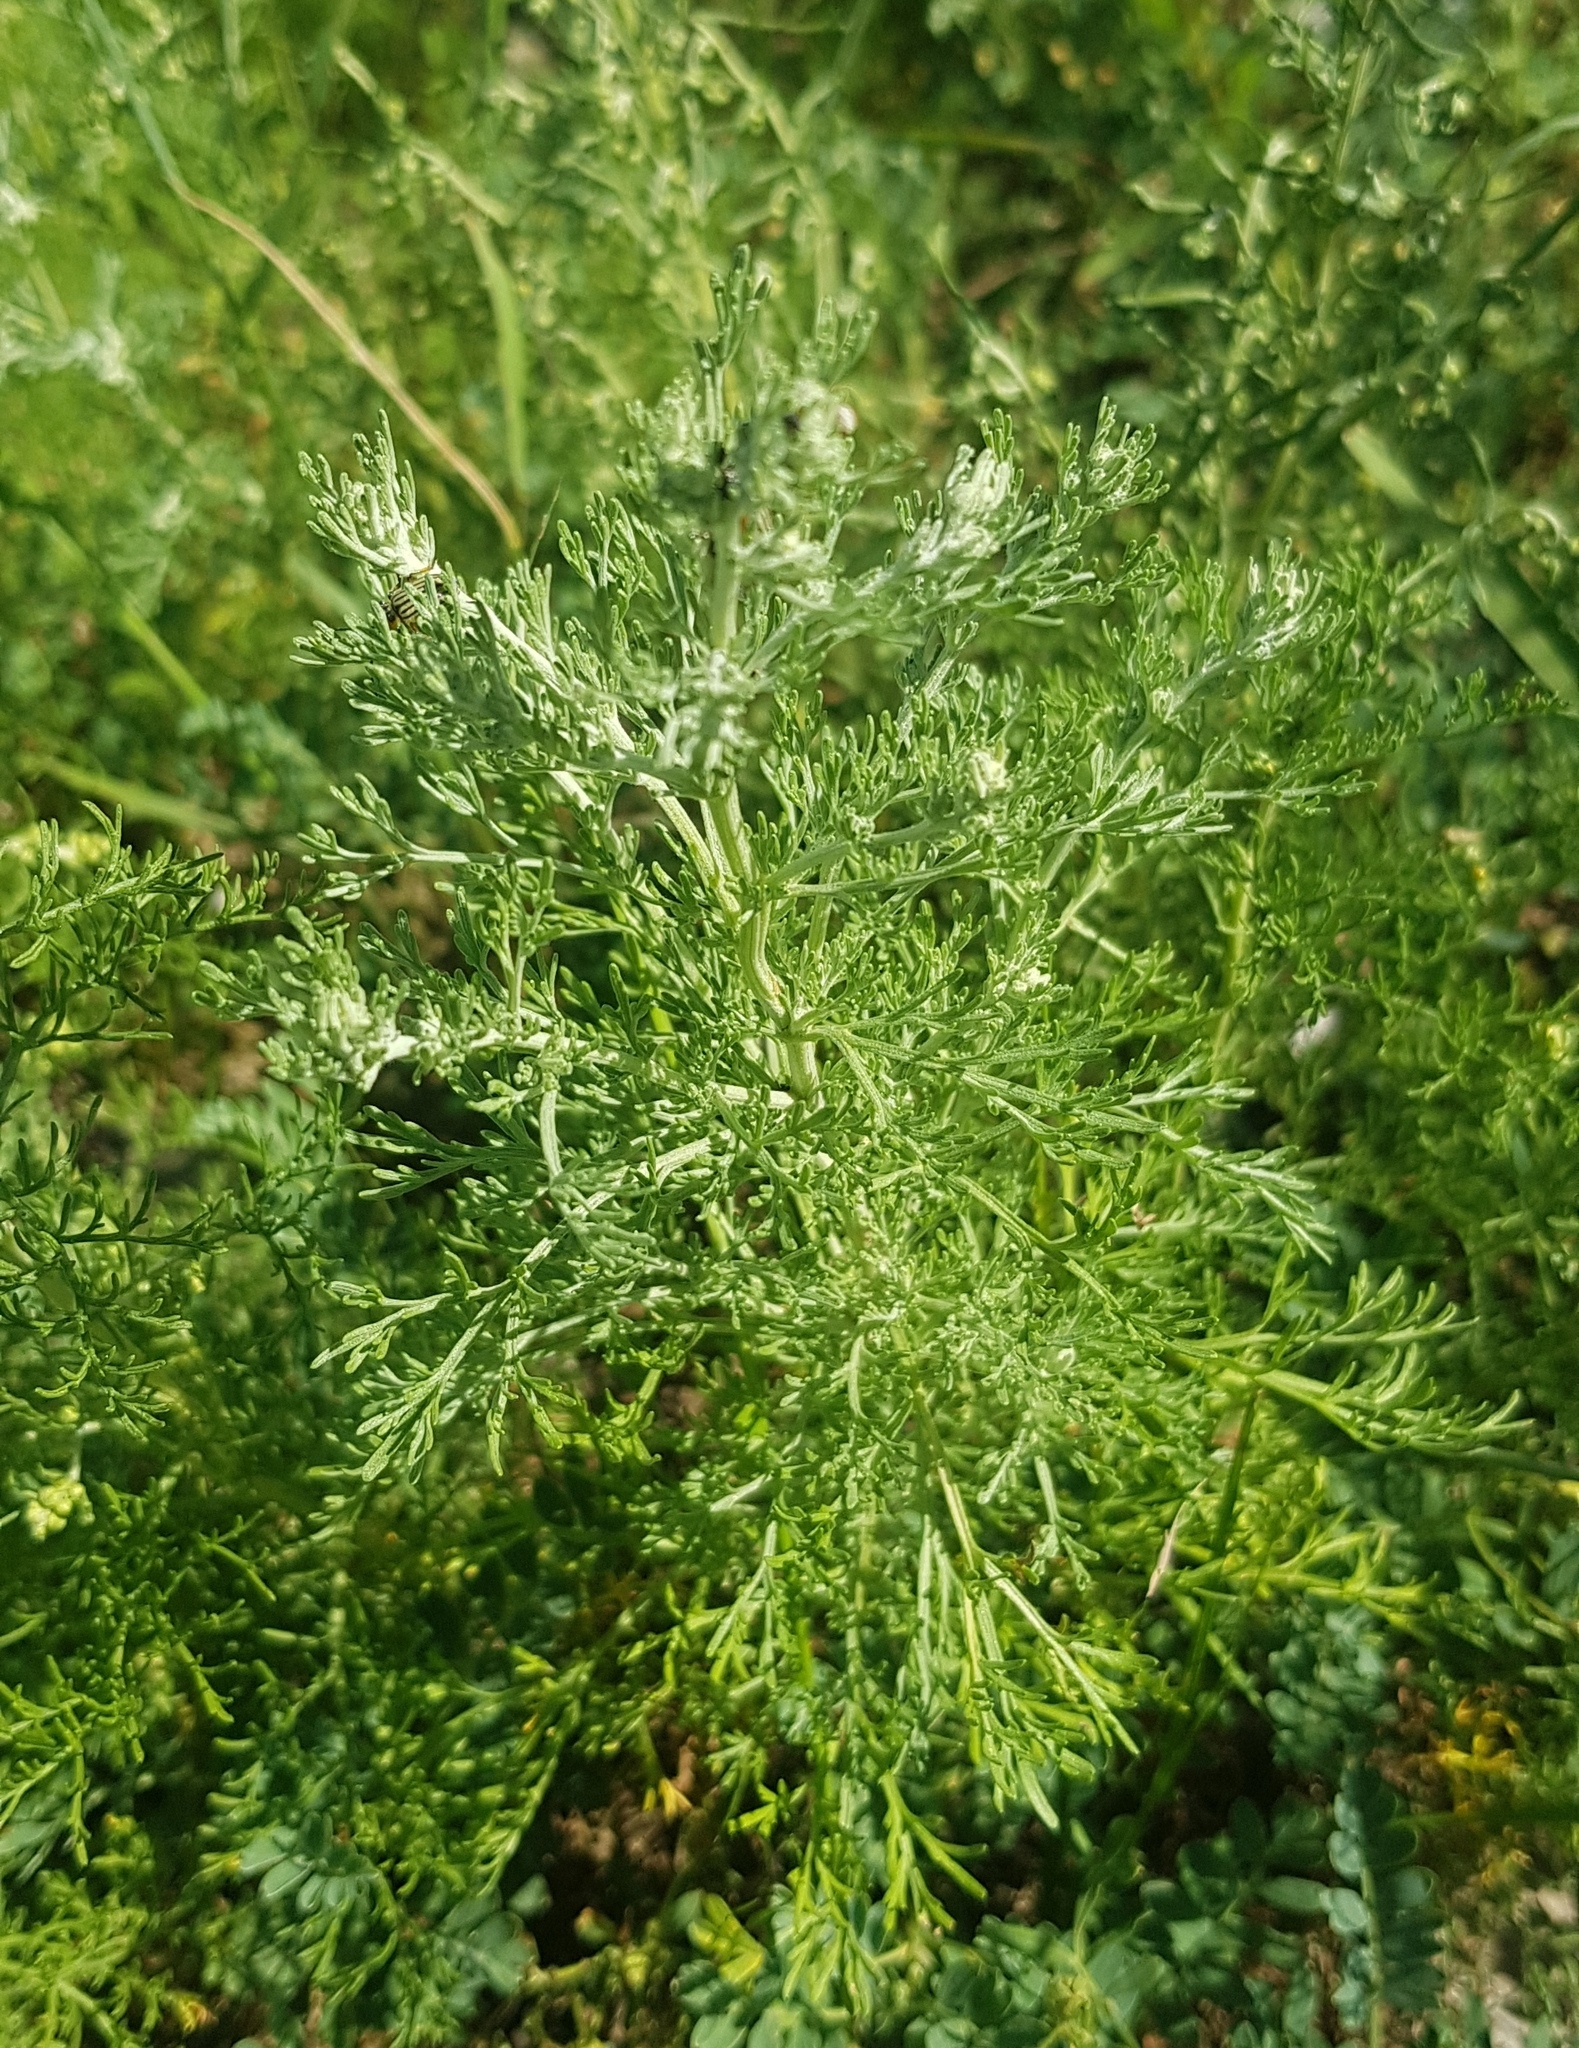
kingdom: Plantae
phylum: Tracheophyta
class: Magnoliopsida
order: Asterales
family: Asteraceae
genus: Artemisia
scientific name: Artemisia sieversiana
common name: Sieversian wormwood
